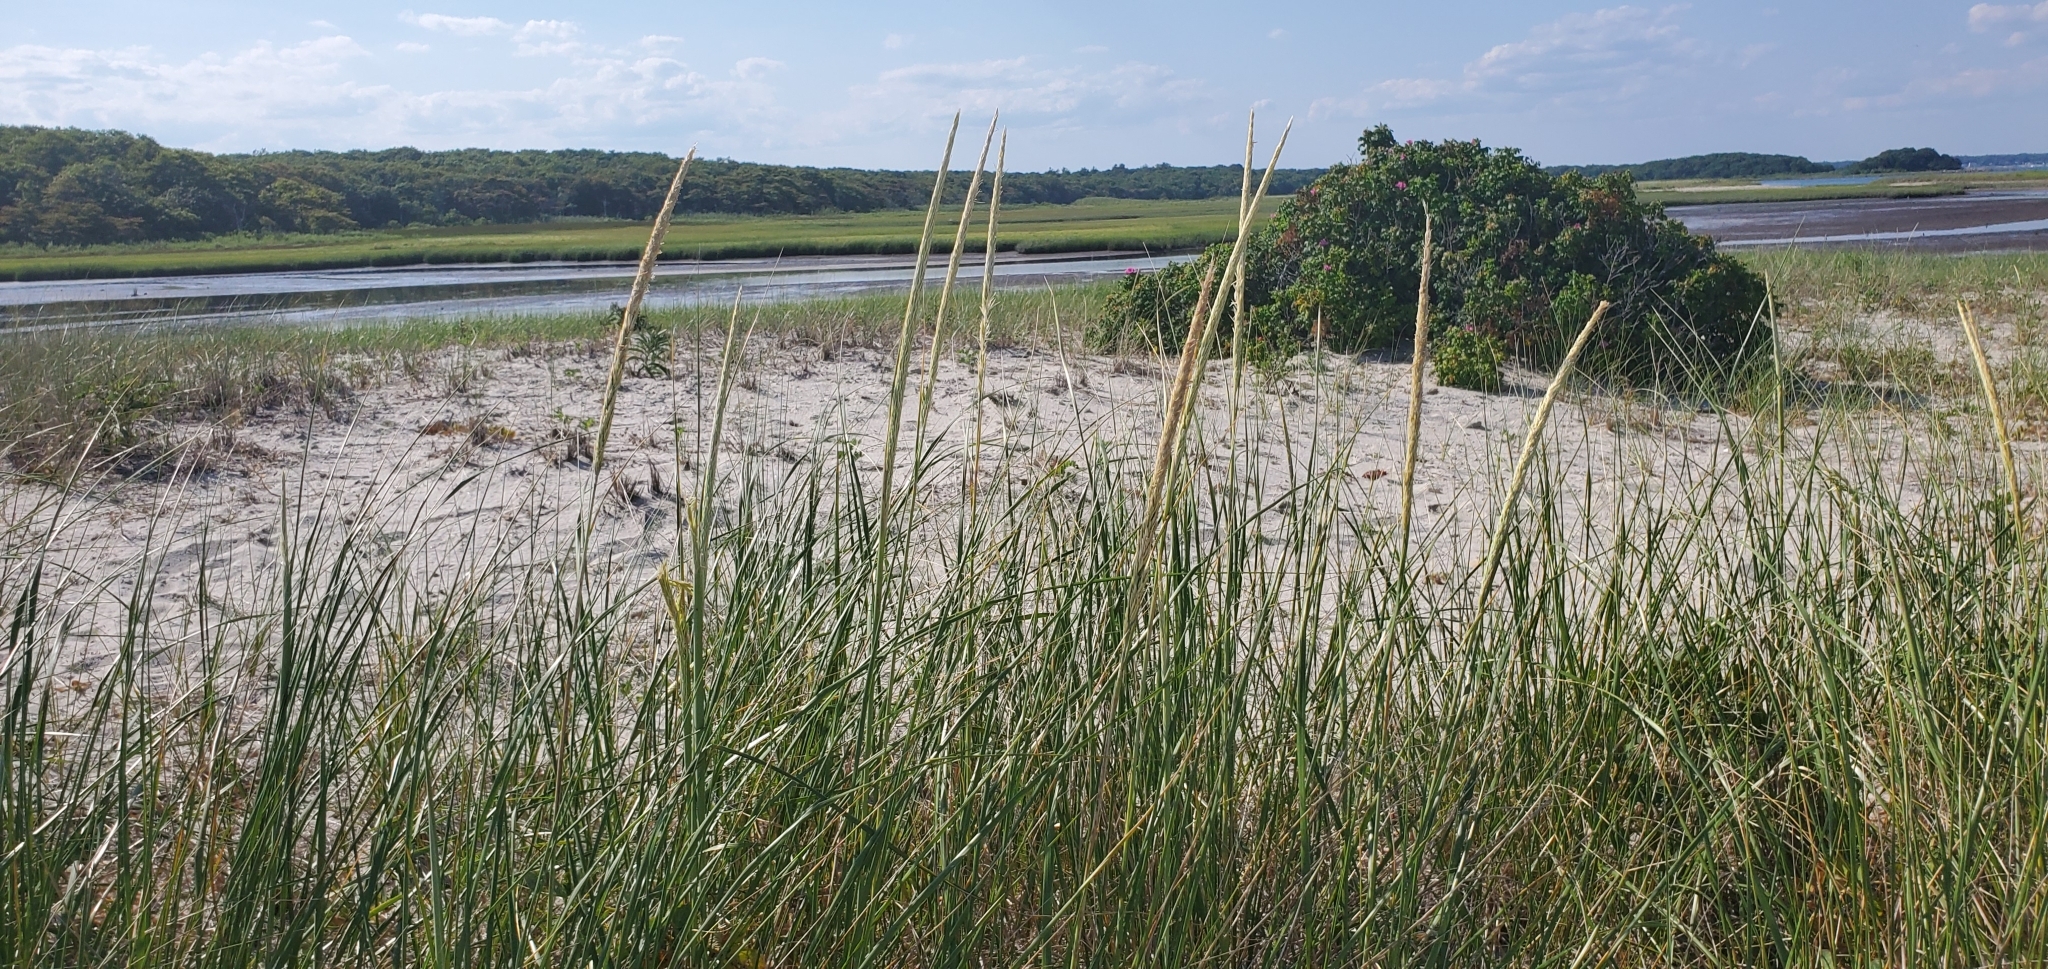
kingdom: Plantae
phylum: Tracheophyta
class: Liliopsida
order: Poales
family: Poaceae
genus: Calamagrostis
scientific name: Calamagrostis breviligulata
